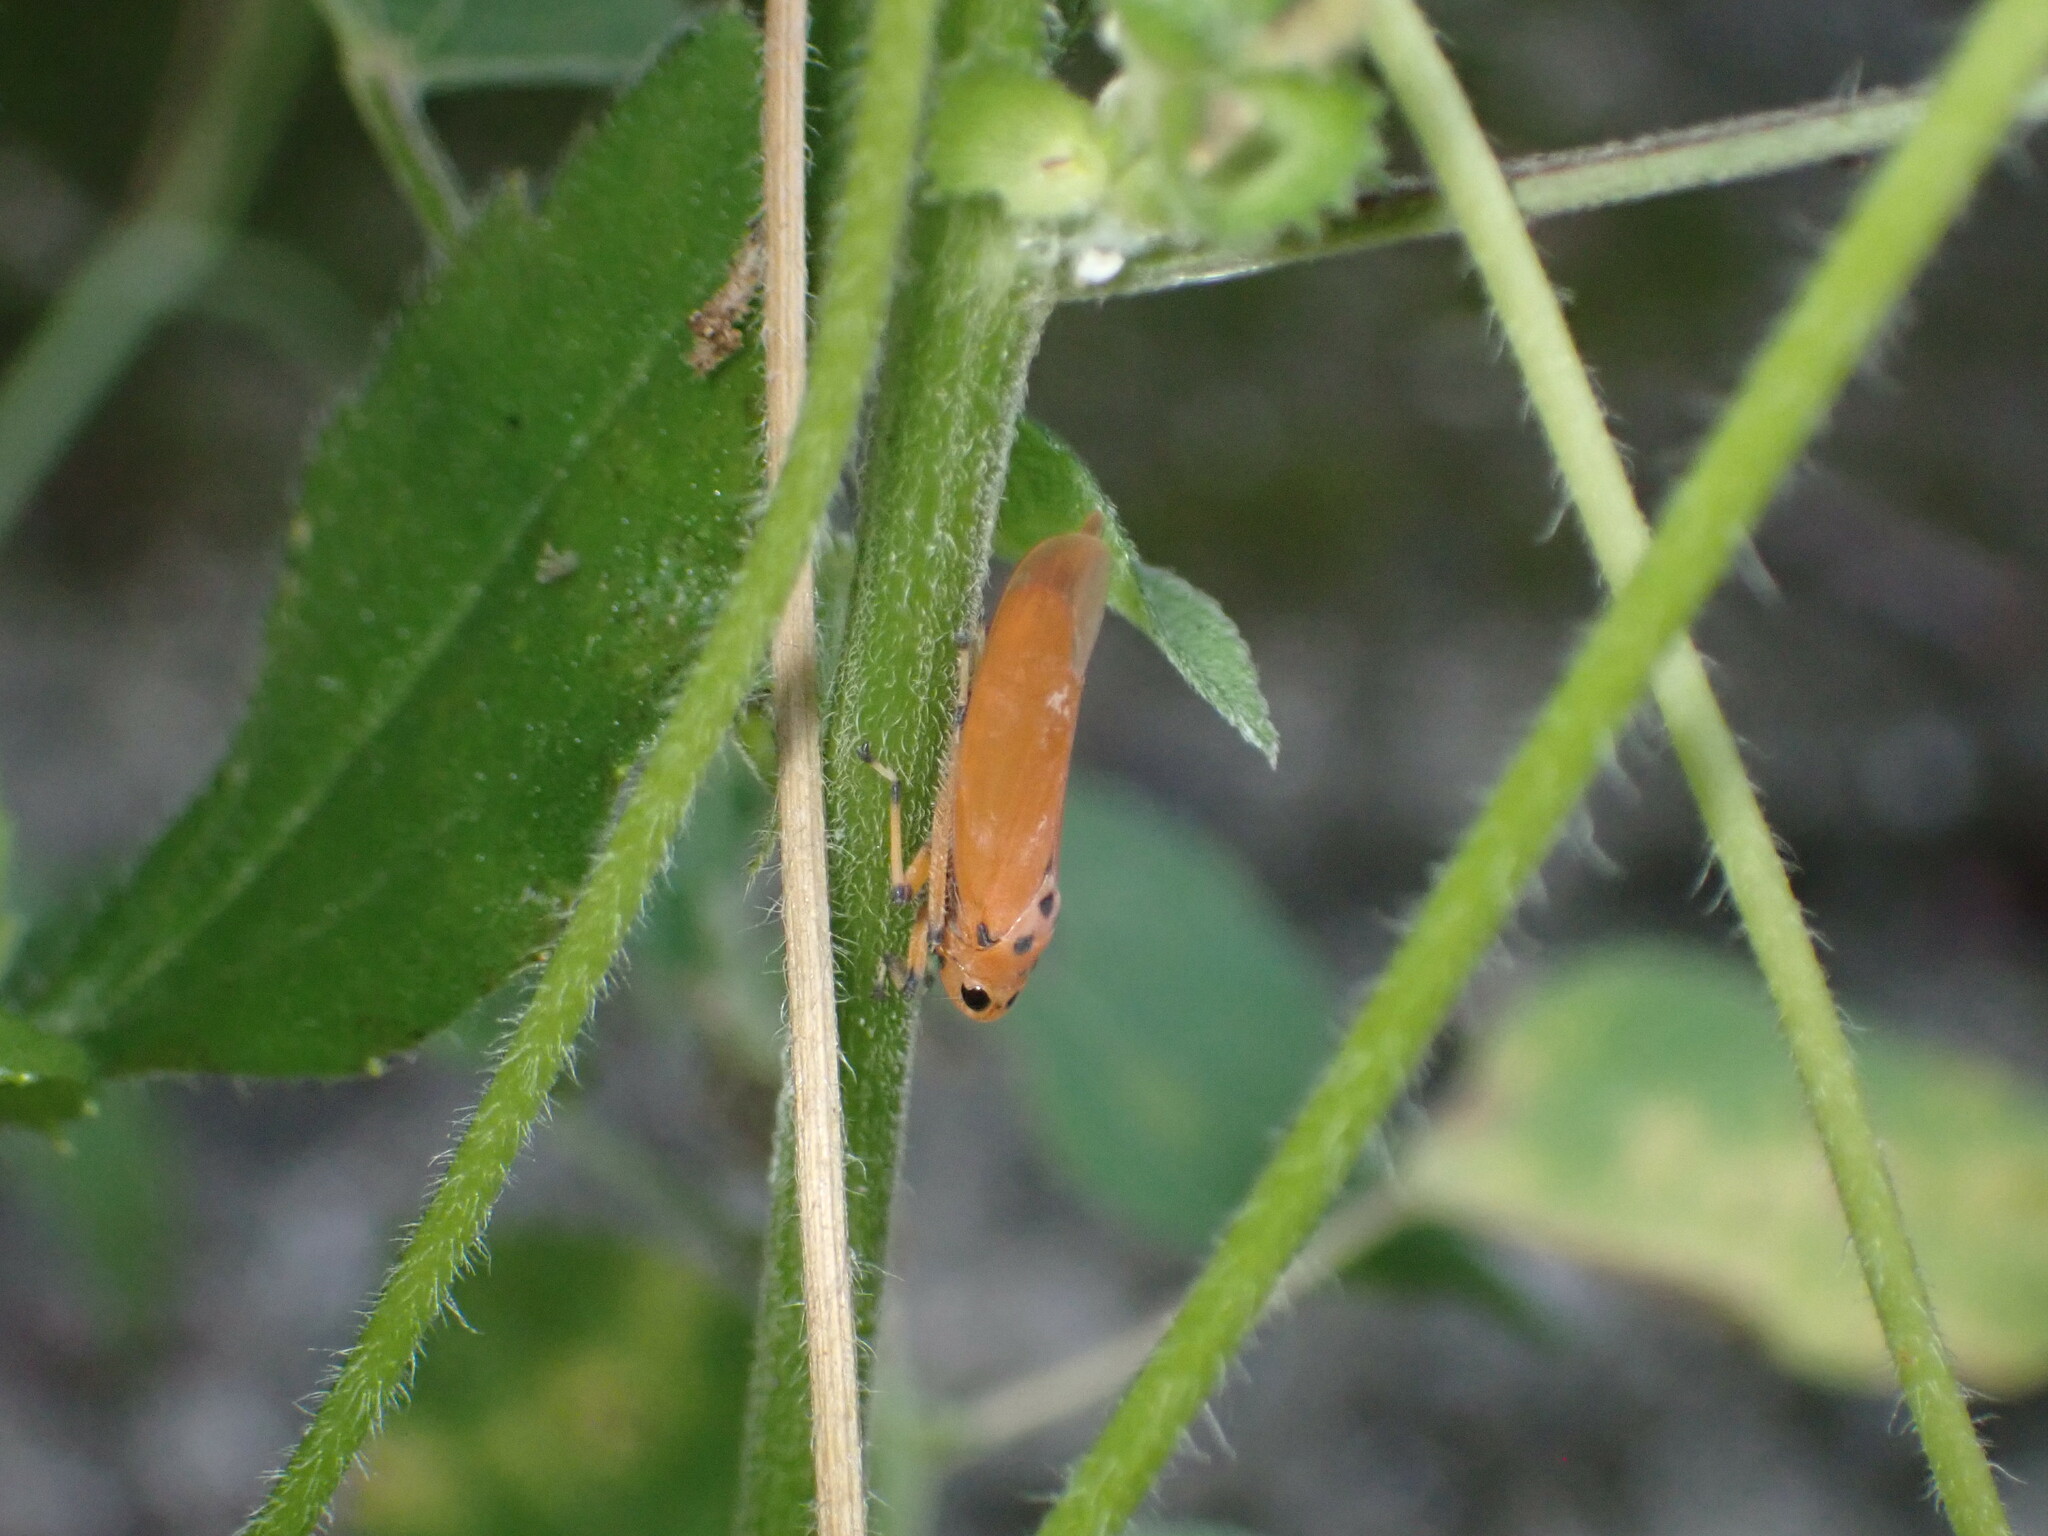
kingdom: Animalia
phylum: Arthropoda
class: Insecta
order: Hemiptera
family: Cicadellidae
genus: Bothrogonia
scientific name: Bothrogonia addita
